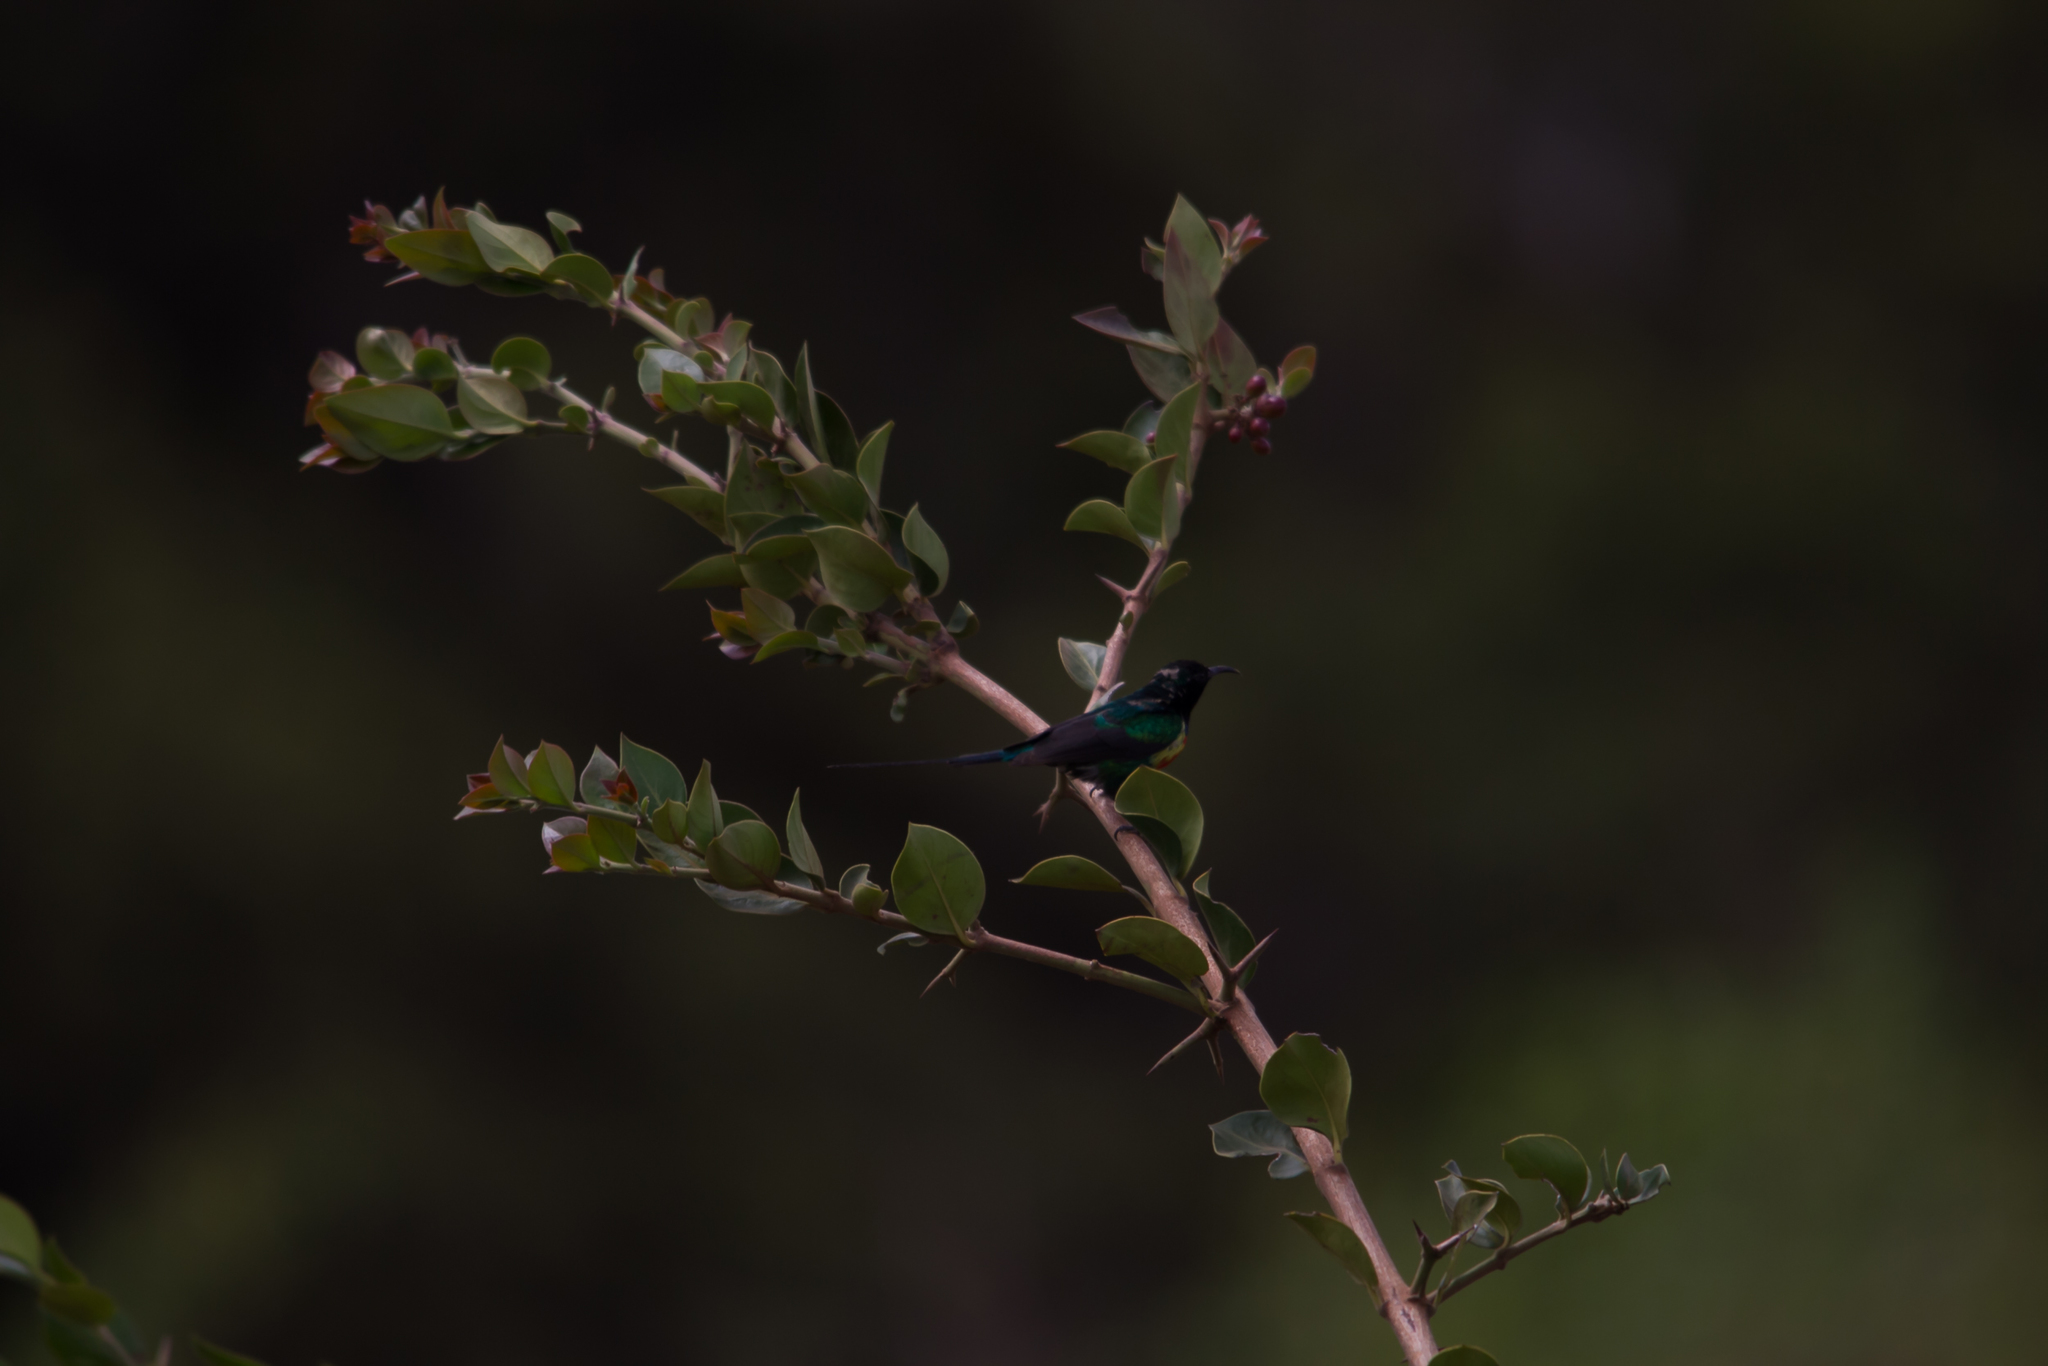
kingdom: Animalia
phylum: Chordata
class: Aves
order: Passeriformes
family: Nectariniidae
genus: Cinnyris
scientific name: Cinnyris pulchellus
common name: Beautiful sunbird
